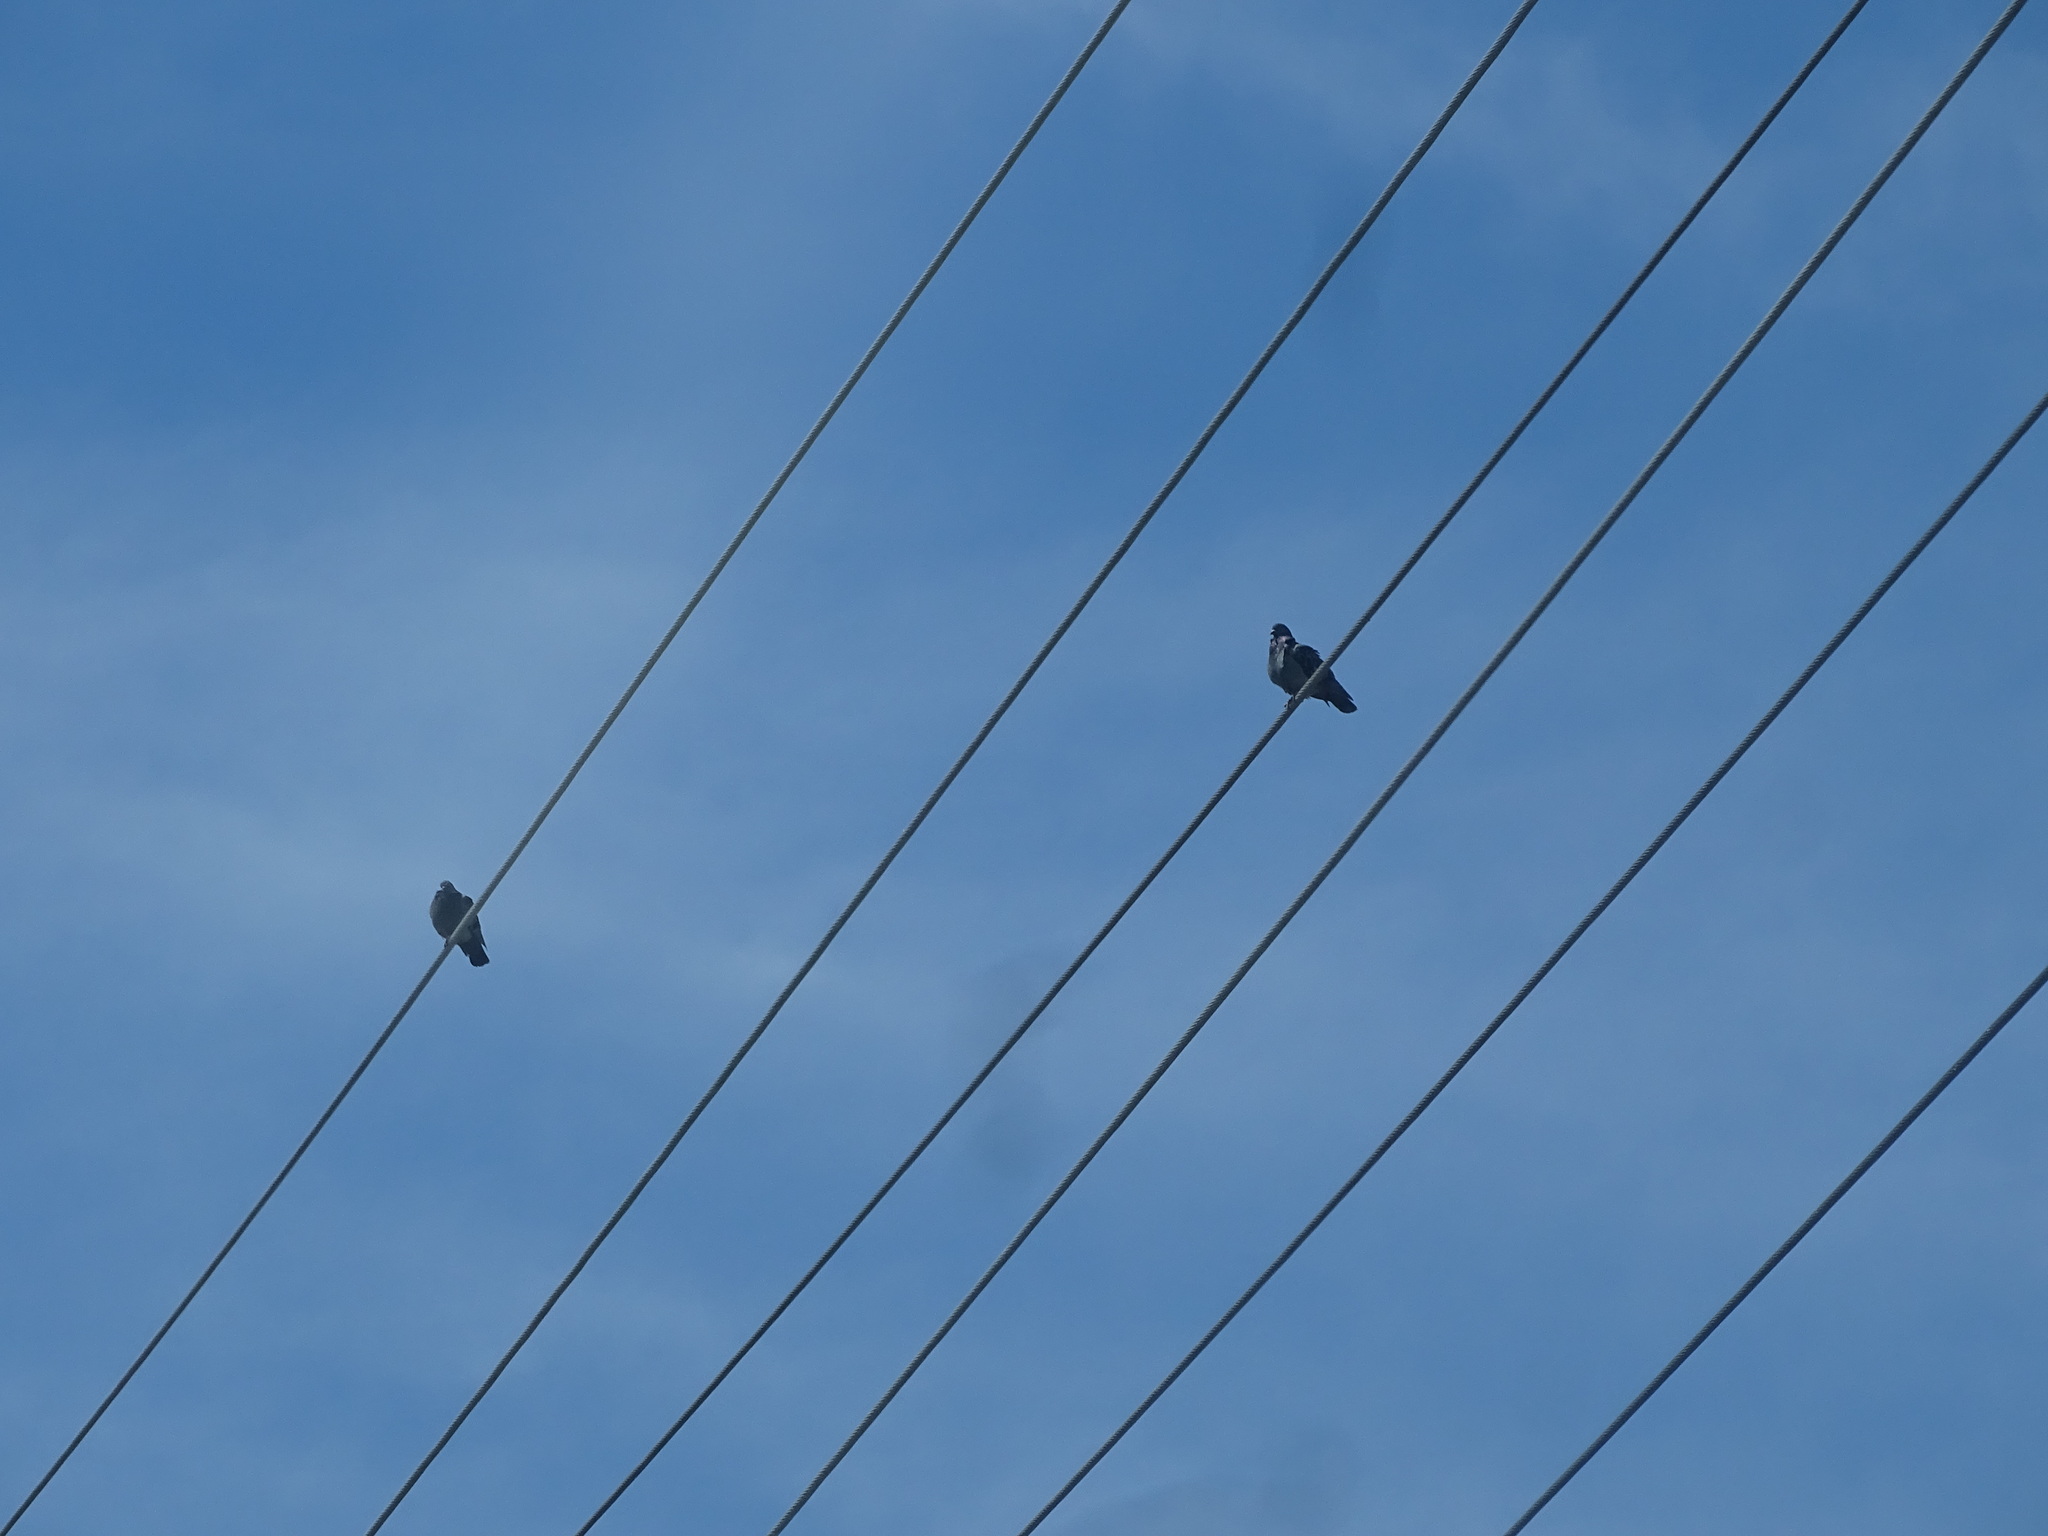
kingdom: Animalia
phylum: Chordata
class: Aves
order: Columbiformes
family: Columbidae
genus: Columba
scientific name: Columba livia
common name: Rock pigeon
